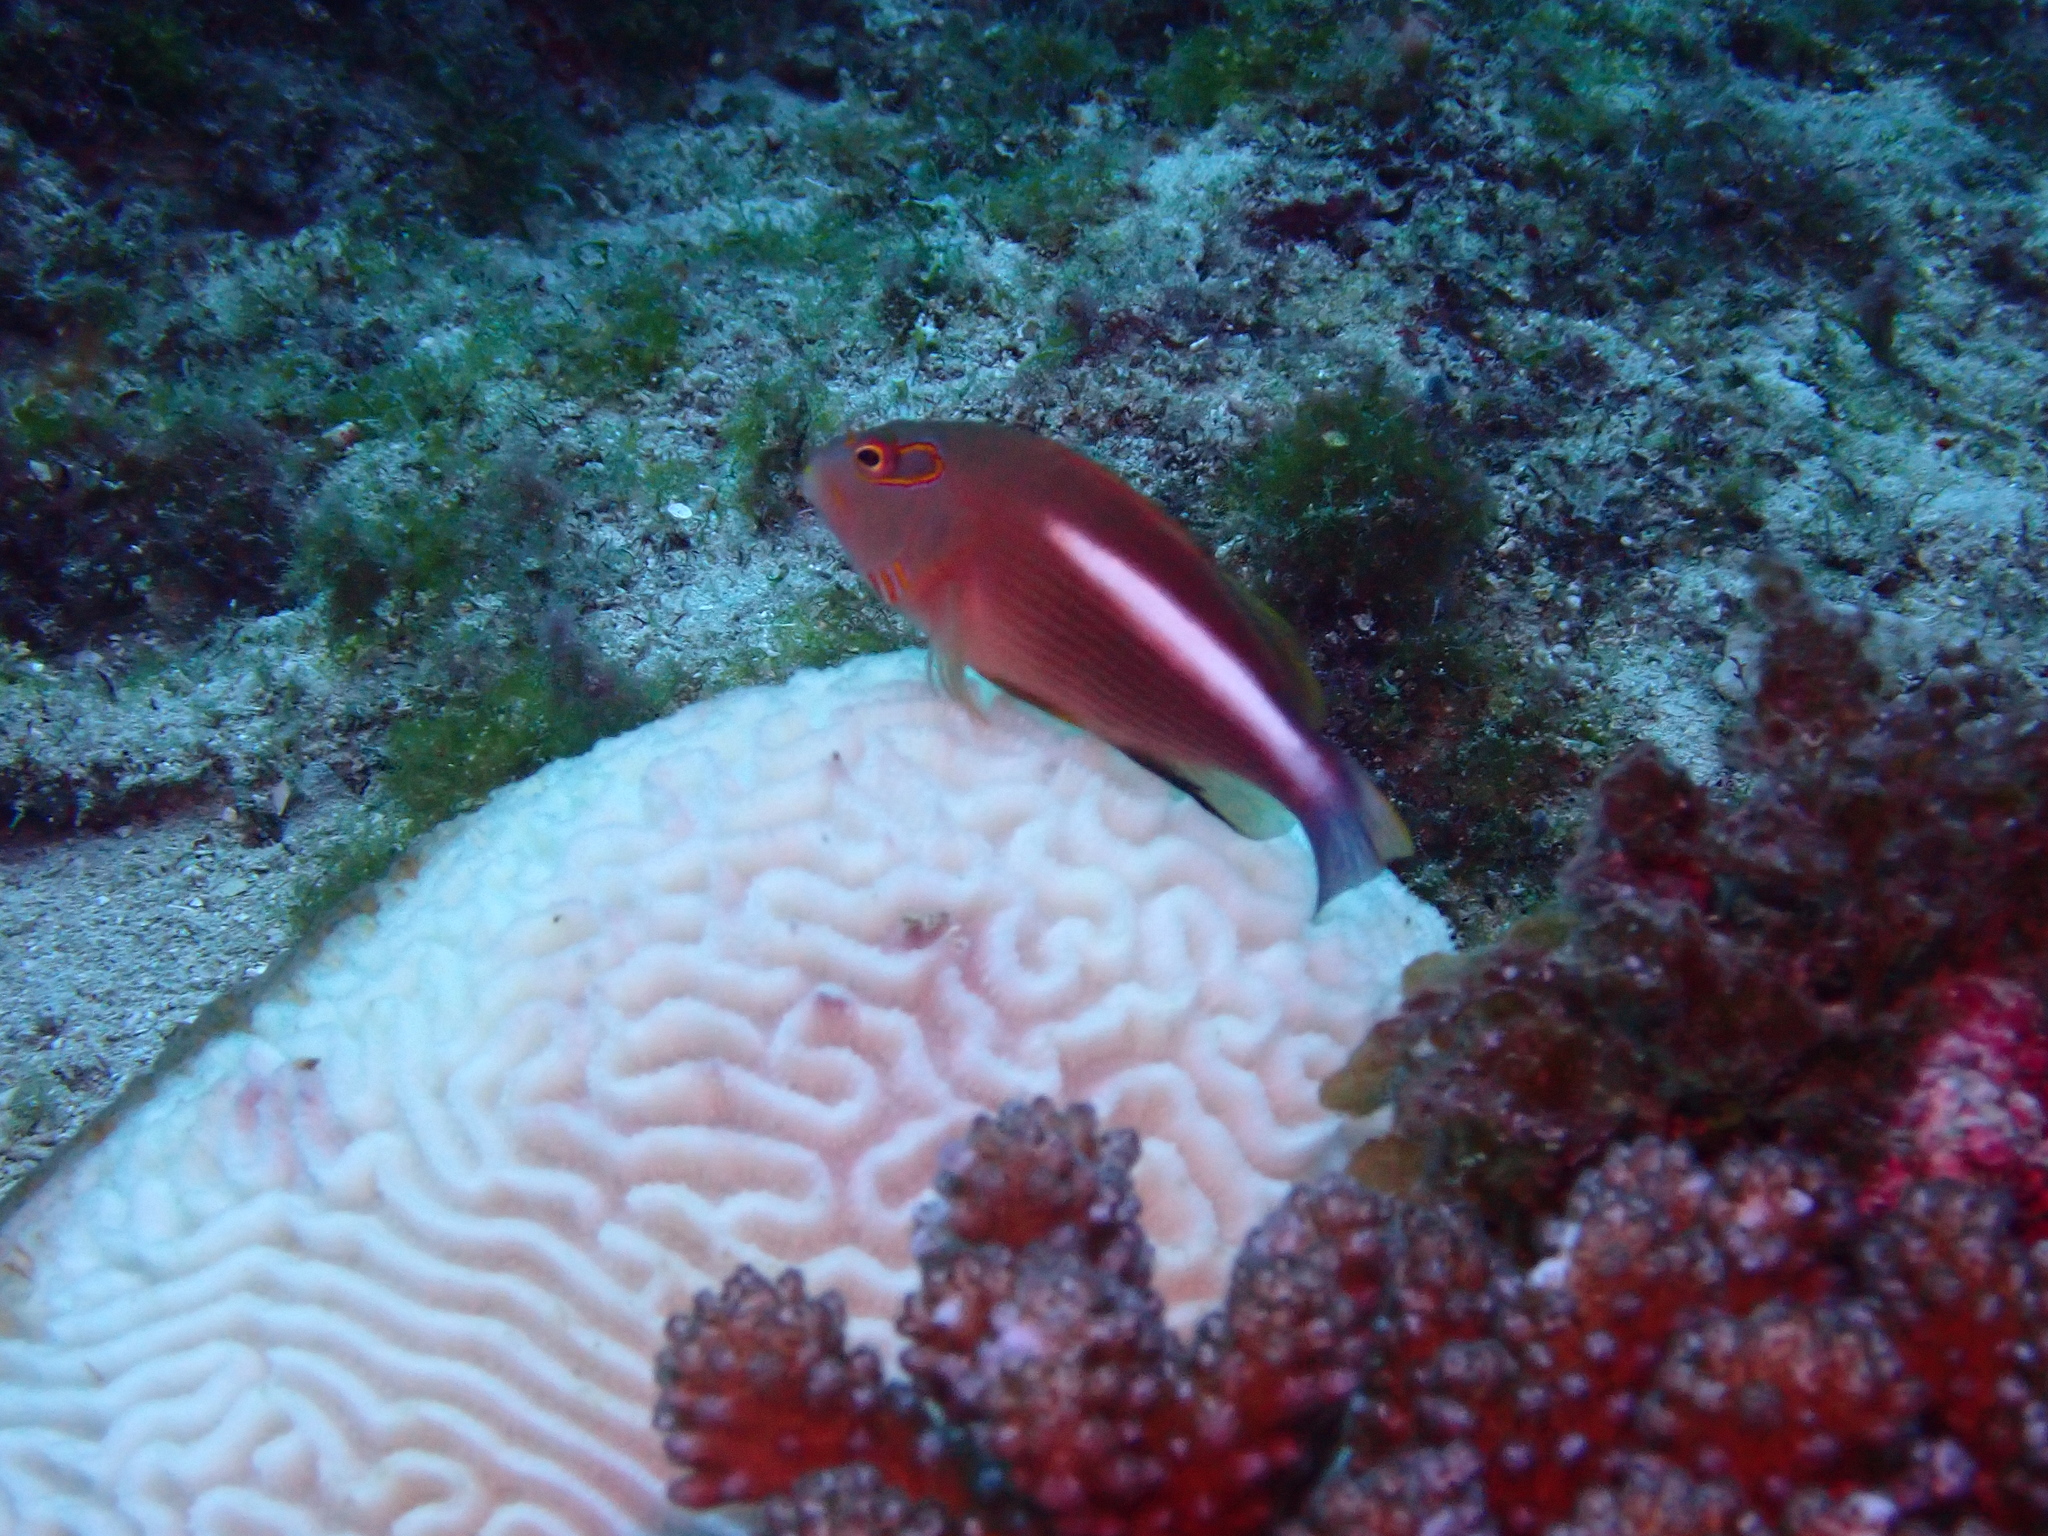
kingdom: Animalia
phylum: Chordata
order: Perciformes
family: Cirrhitidae
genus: Paracirrhites
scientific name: Paracirrhites arcatus
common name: Arc-eye hawkfish
